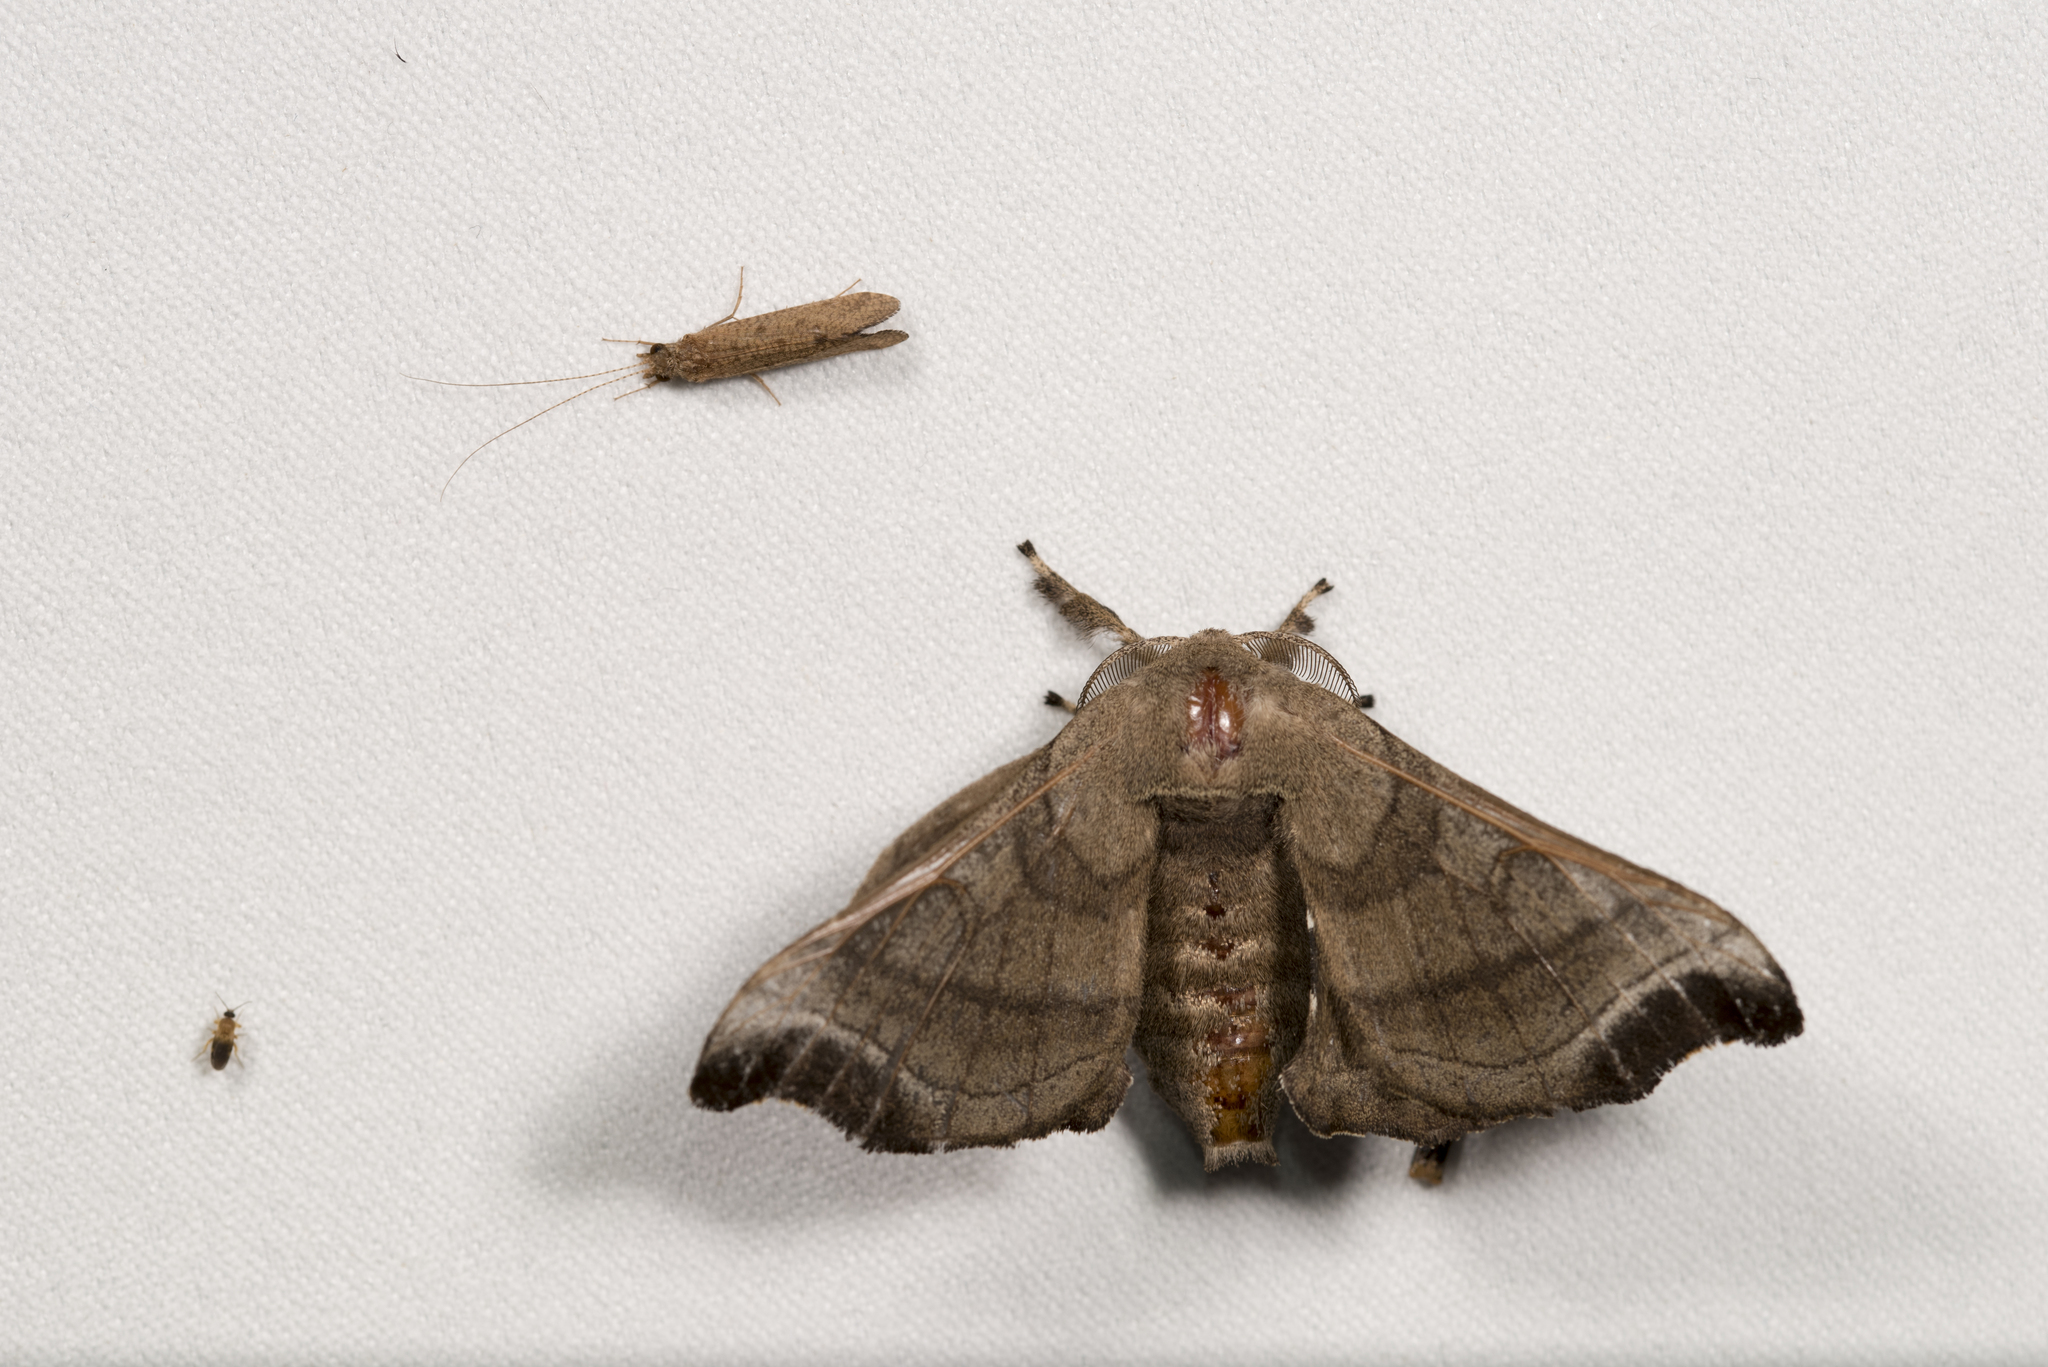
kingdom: Animalia
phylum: Arthropoda
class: Insecta
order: Lepidoptera
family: Bombycidae
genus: Bombyx
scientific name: Bombyx mandarina
